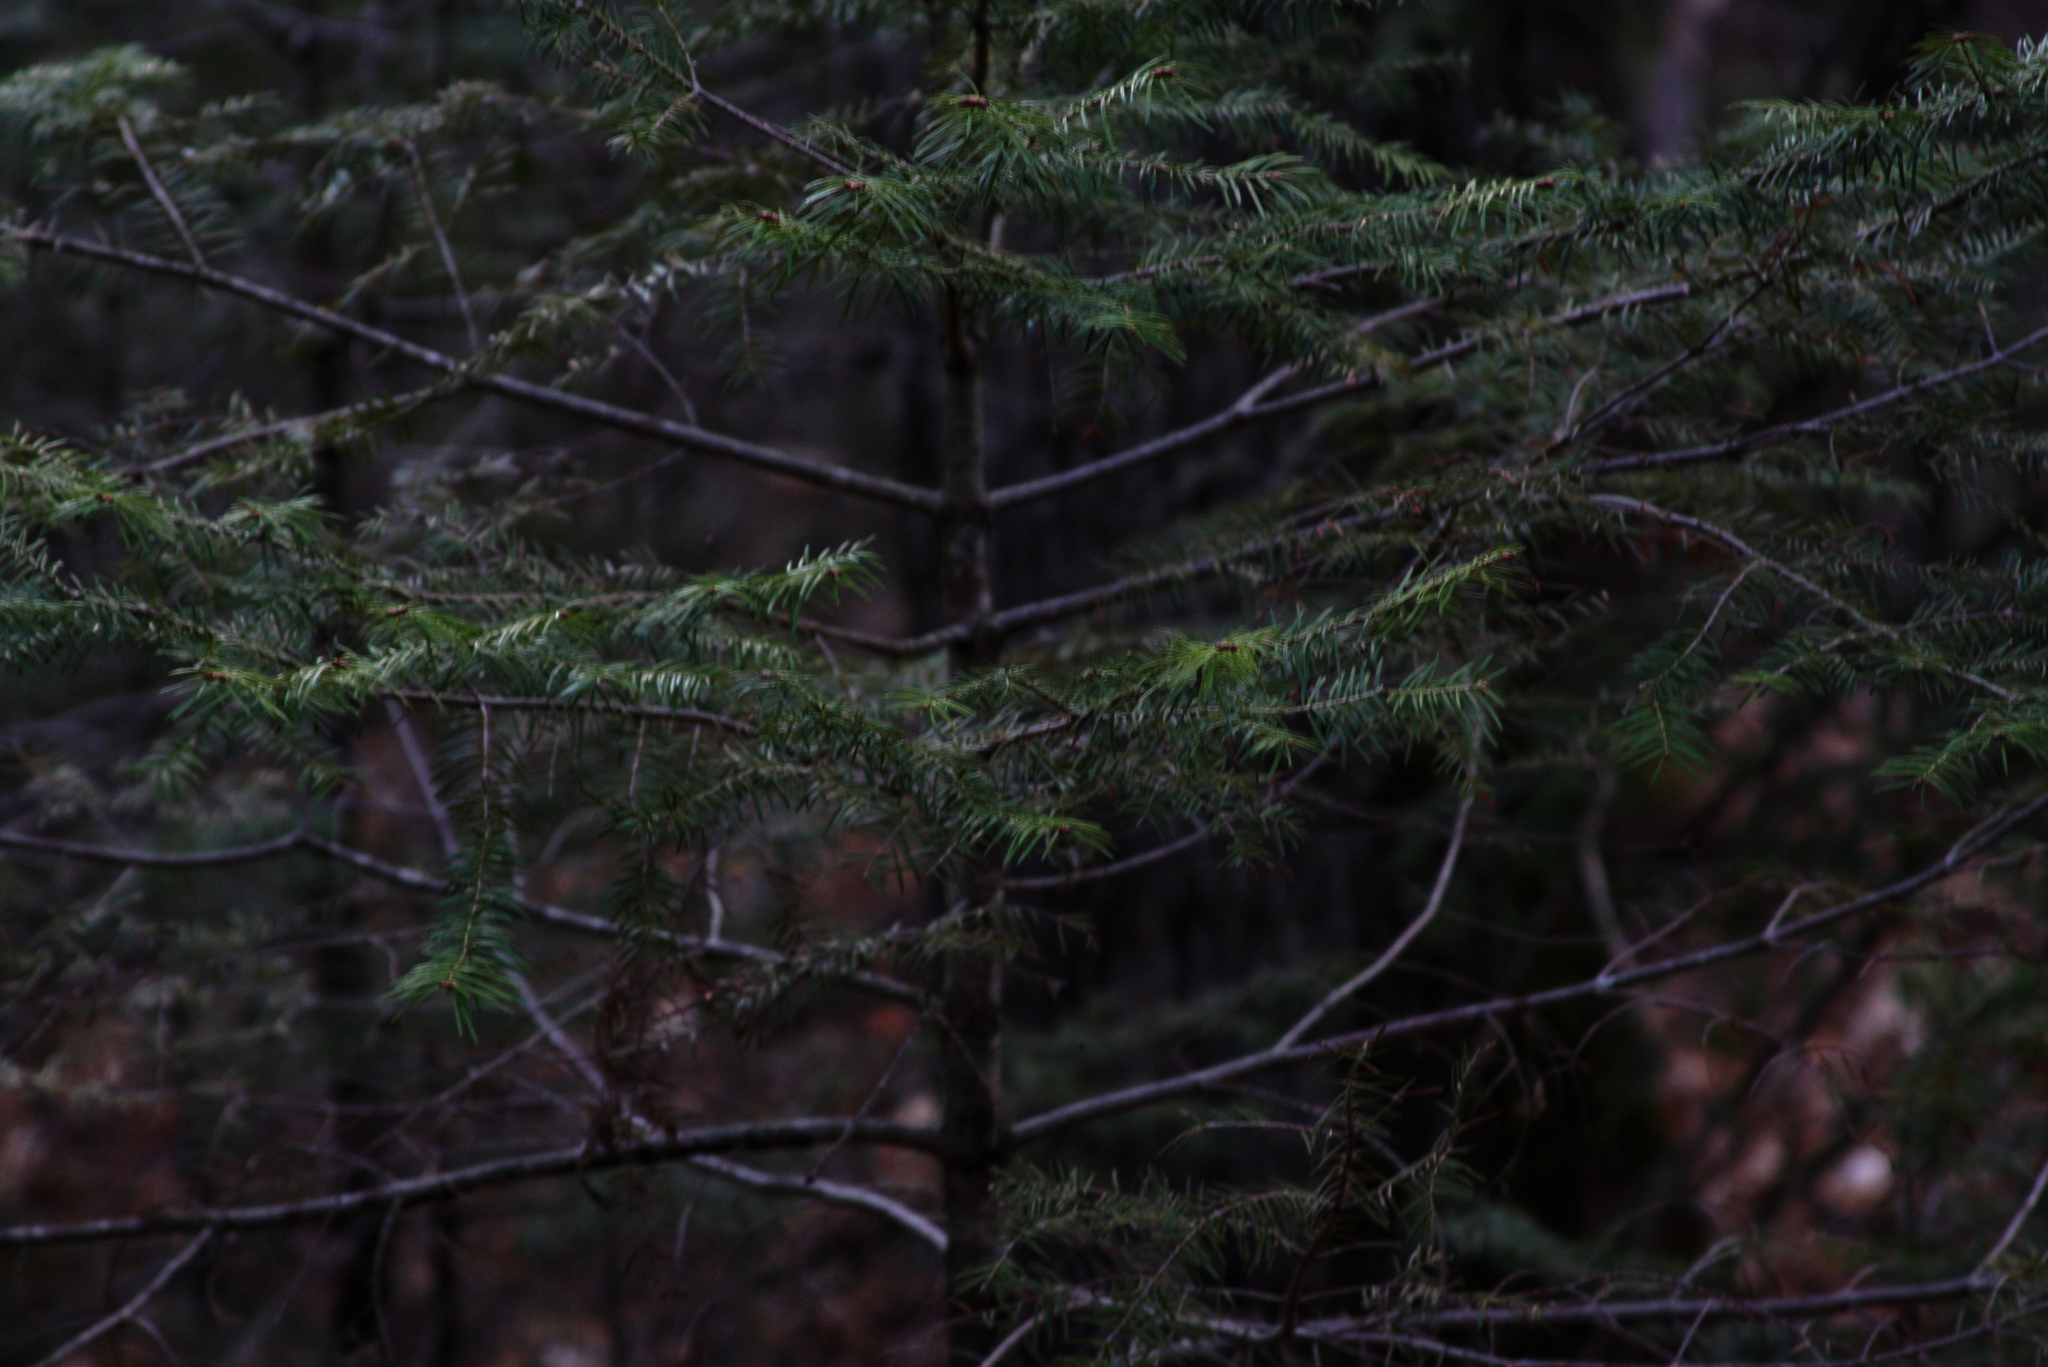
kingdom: Plantae
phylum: Tracheophyta
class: Pinopsida
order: Pinales
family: Pinaceae
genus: Abies
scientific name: Abies balsamea
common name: Balsam fir
